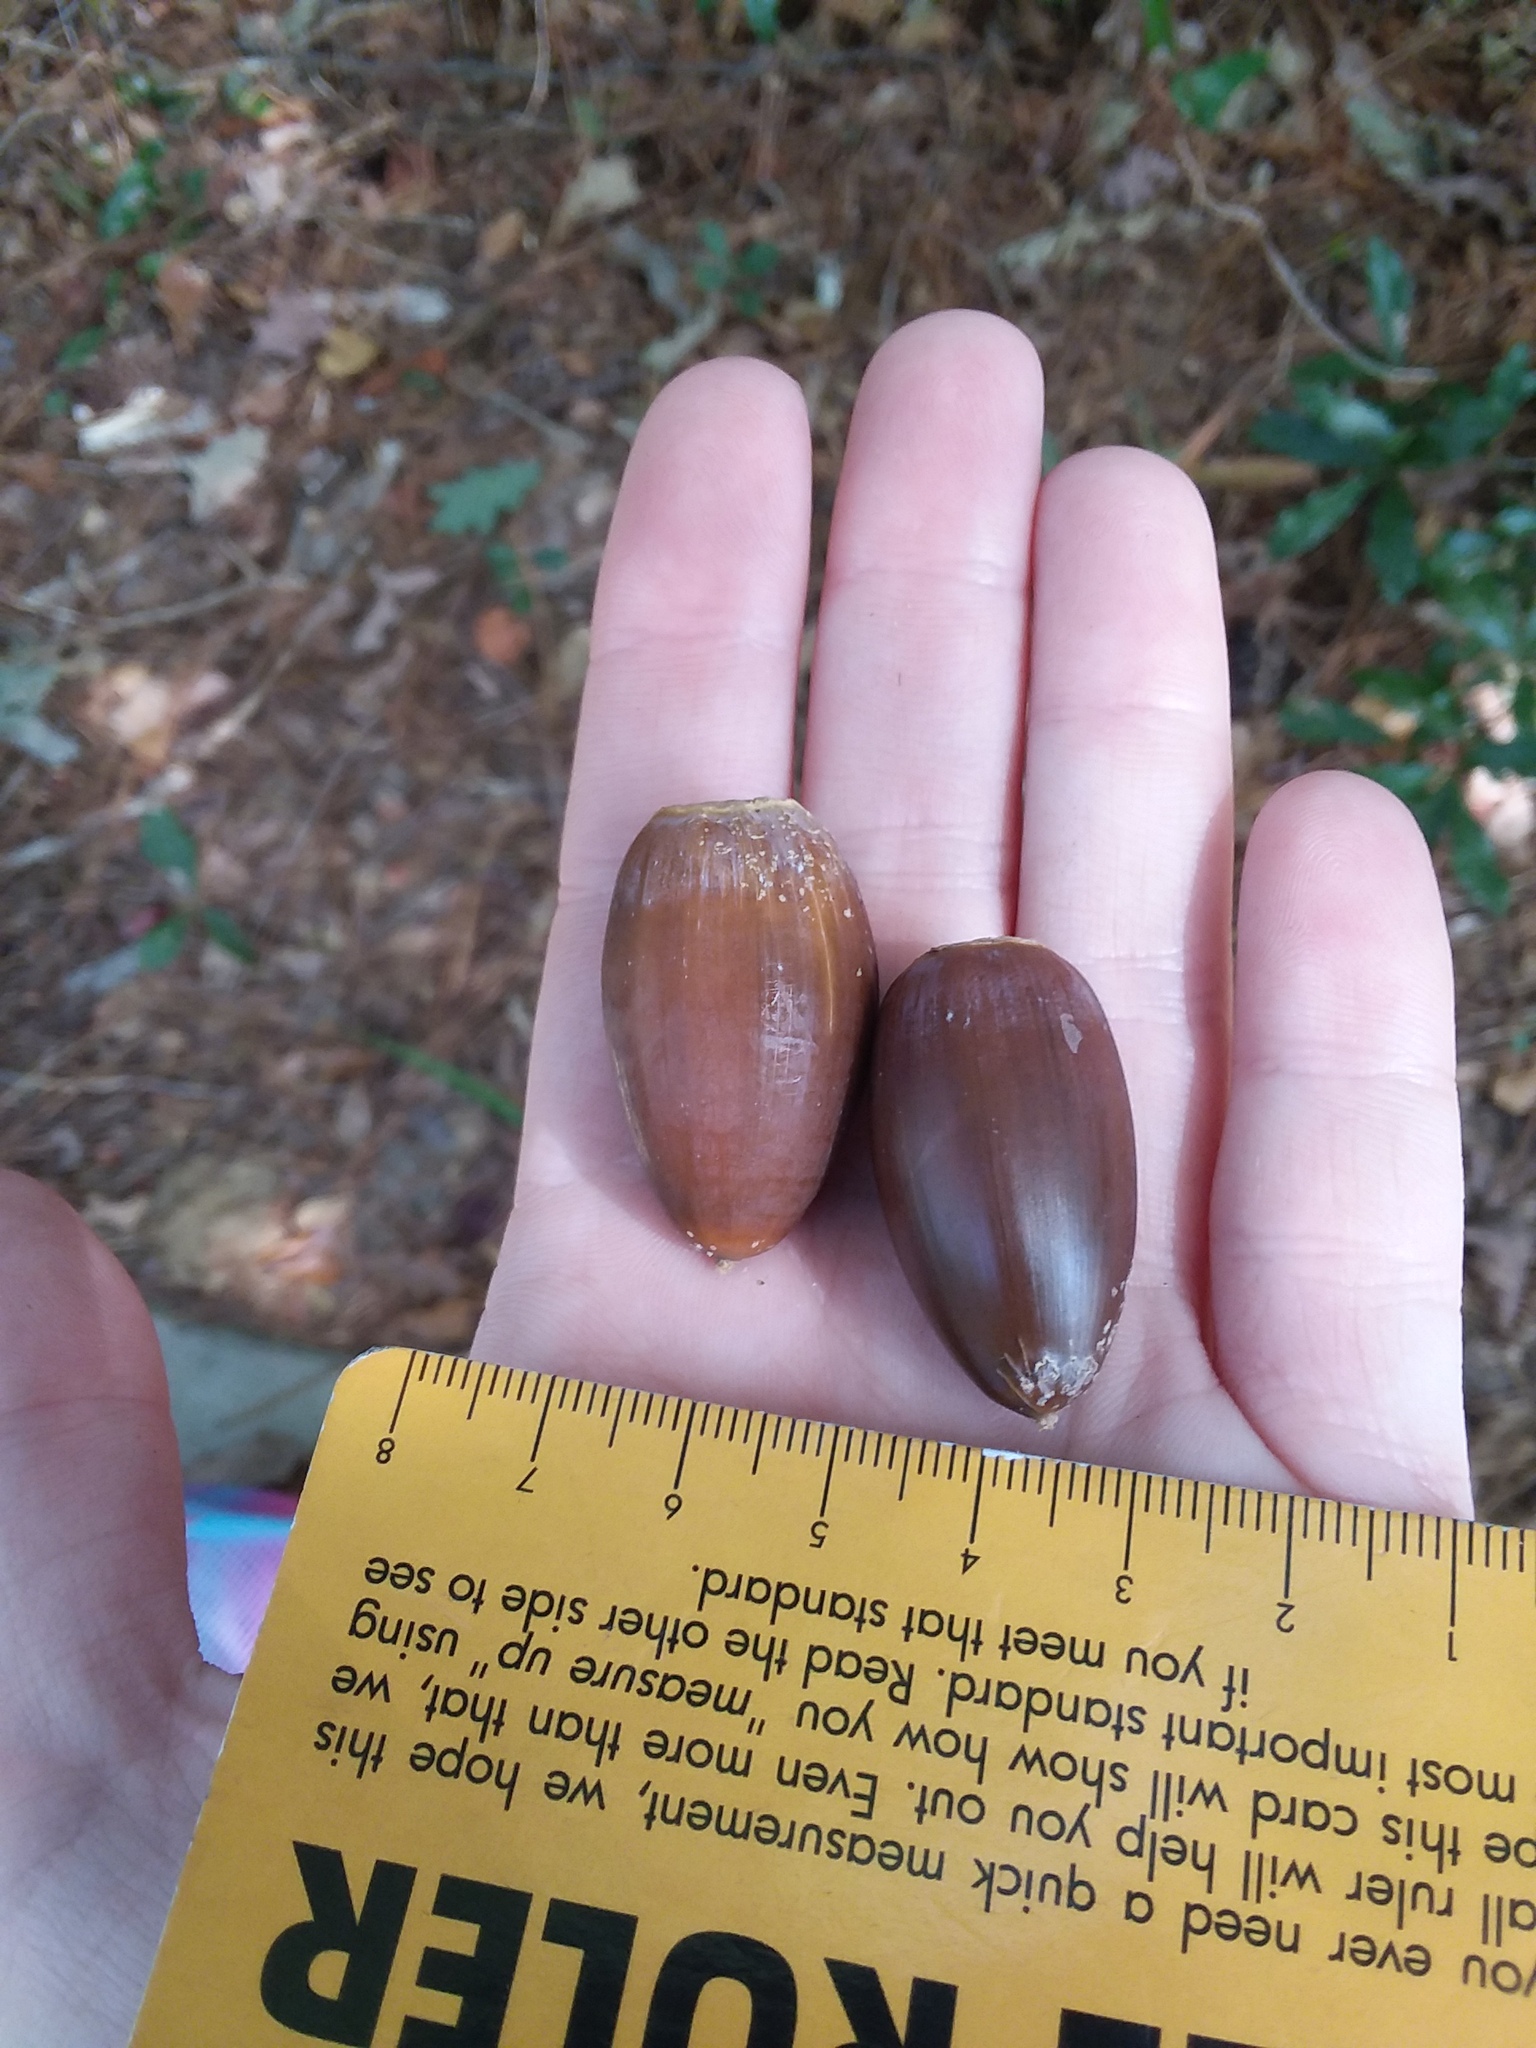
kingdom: Plantae
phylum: Tracheophyta
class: Magnoliopsida
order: Fagales
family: Fagaceae
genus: Quercus
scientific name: Quercus alba
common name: White oak
